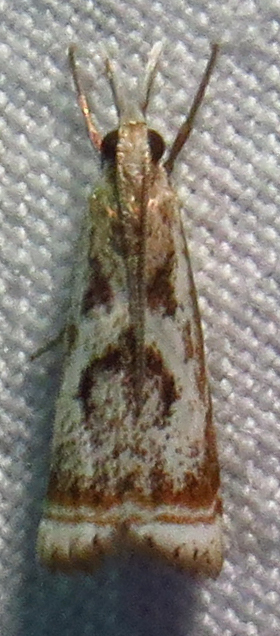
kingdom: Animalia
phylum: Arthropoda
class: Insecta
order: Lepidoptera
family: Crambidae
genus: Microcrambus
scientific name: Microcrambus elegans
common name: Elegant grass-veneer
